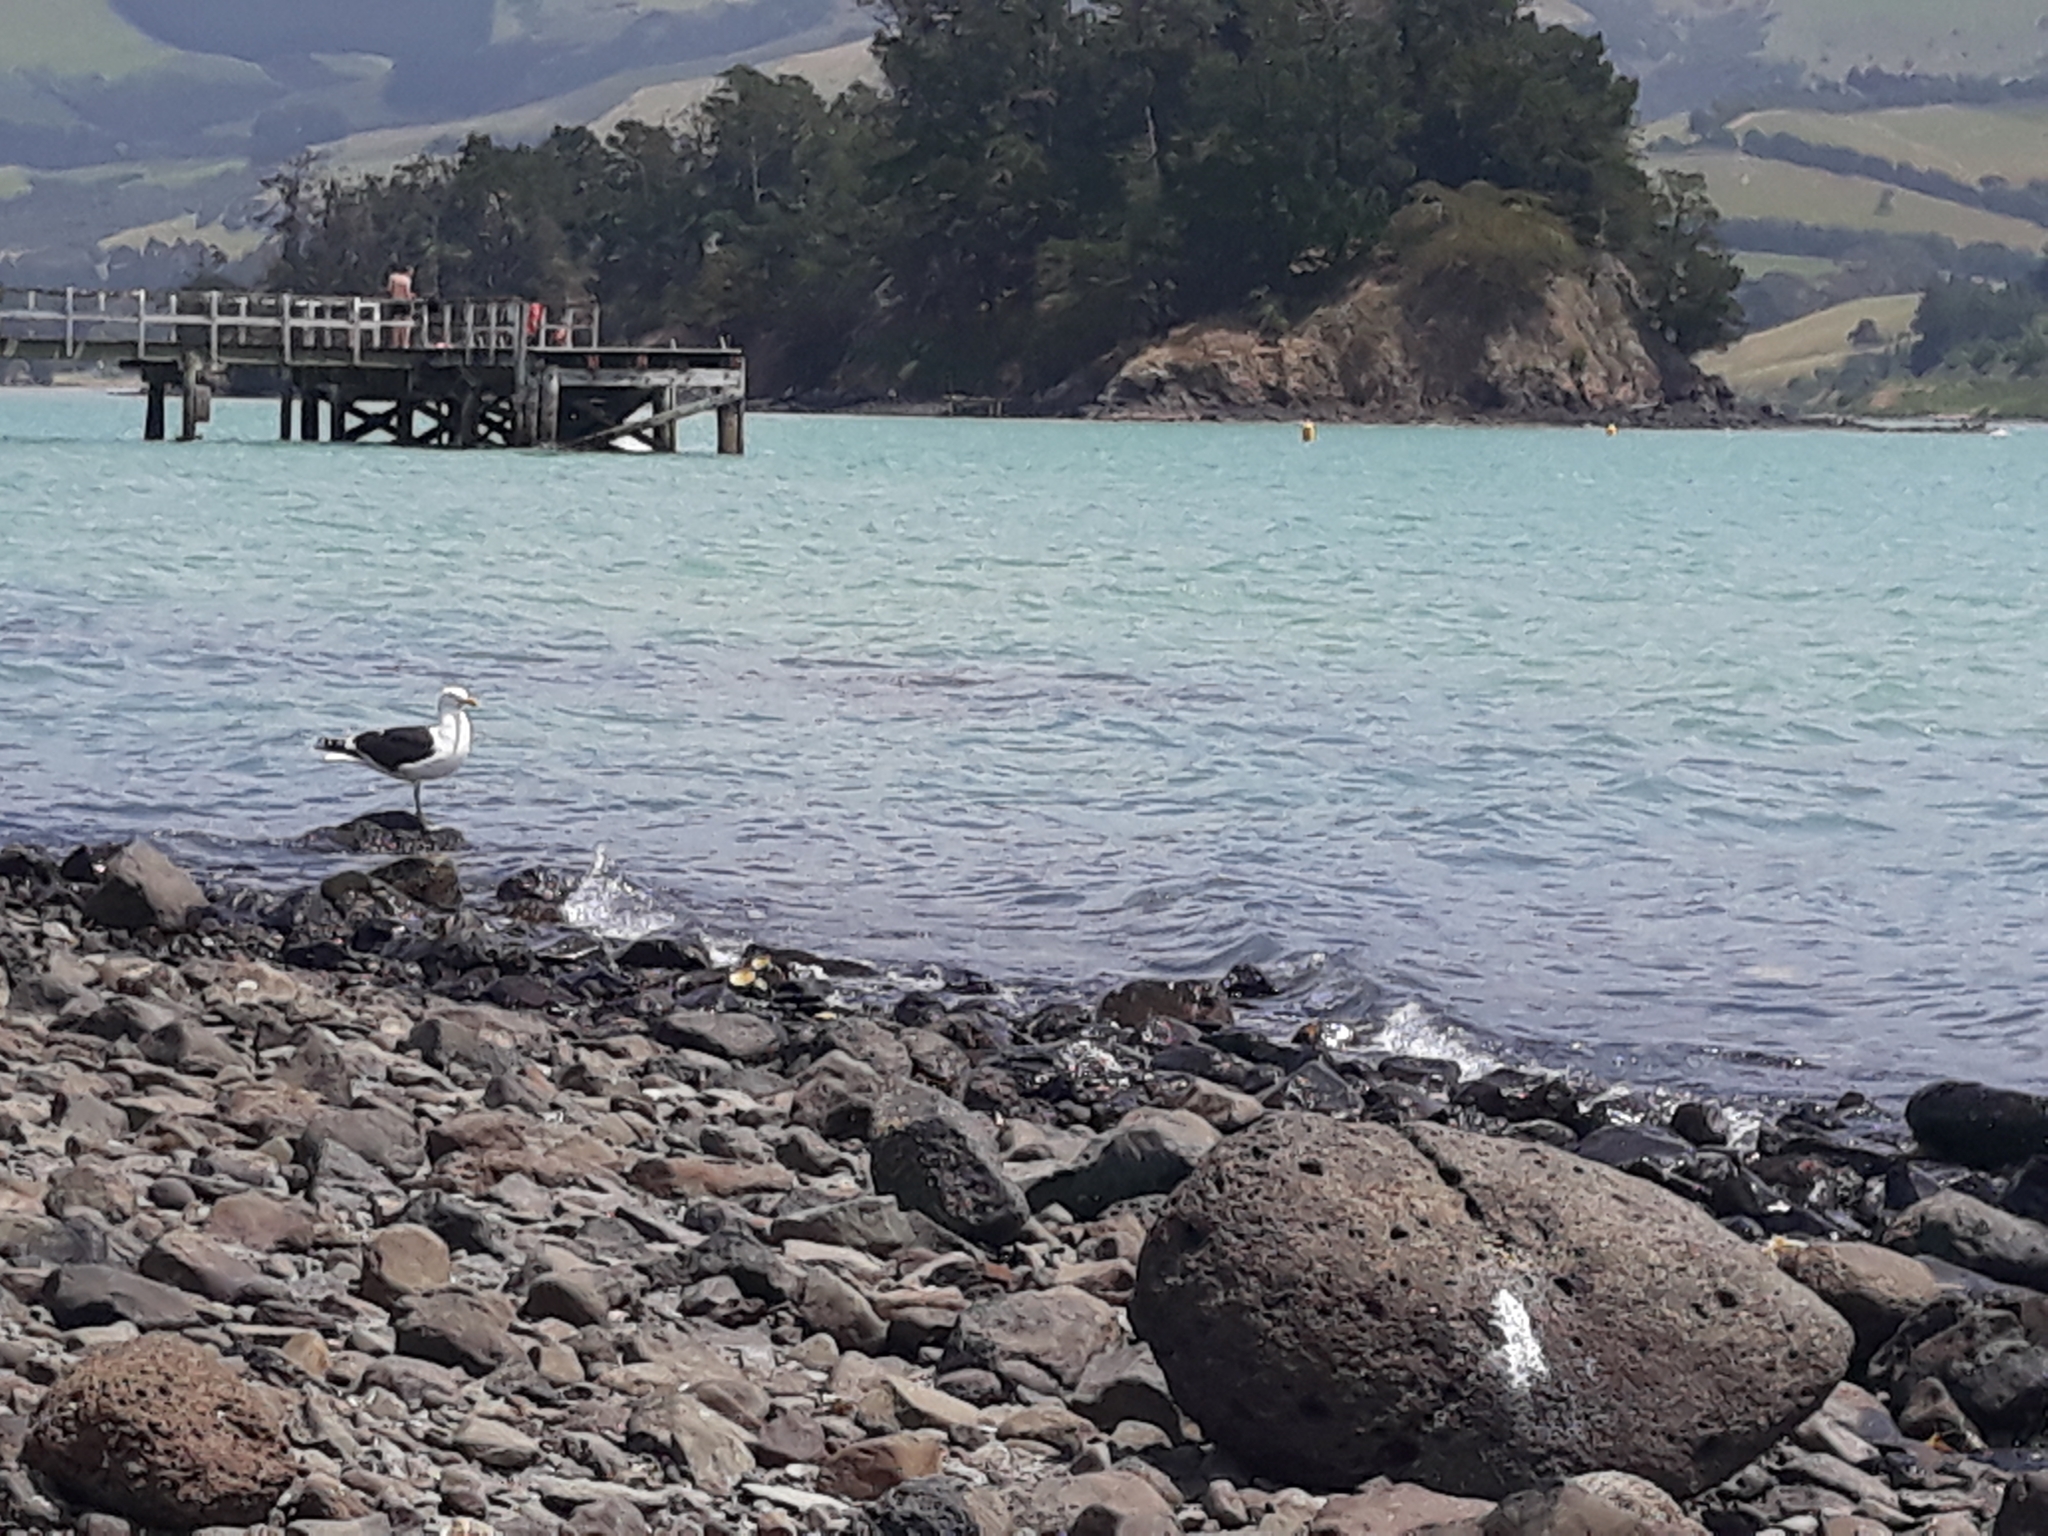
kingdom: Animalia
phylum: Chordata
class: Aves
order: Charadriiformes
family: Laridae
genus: Larus
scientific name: Larus dominicanus
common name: Kelp gull
